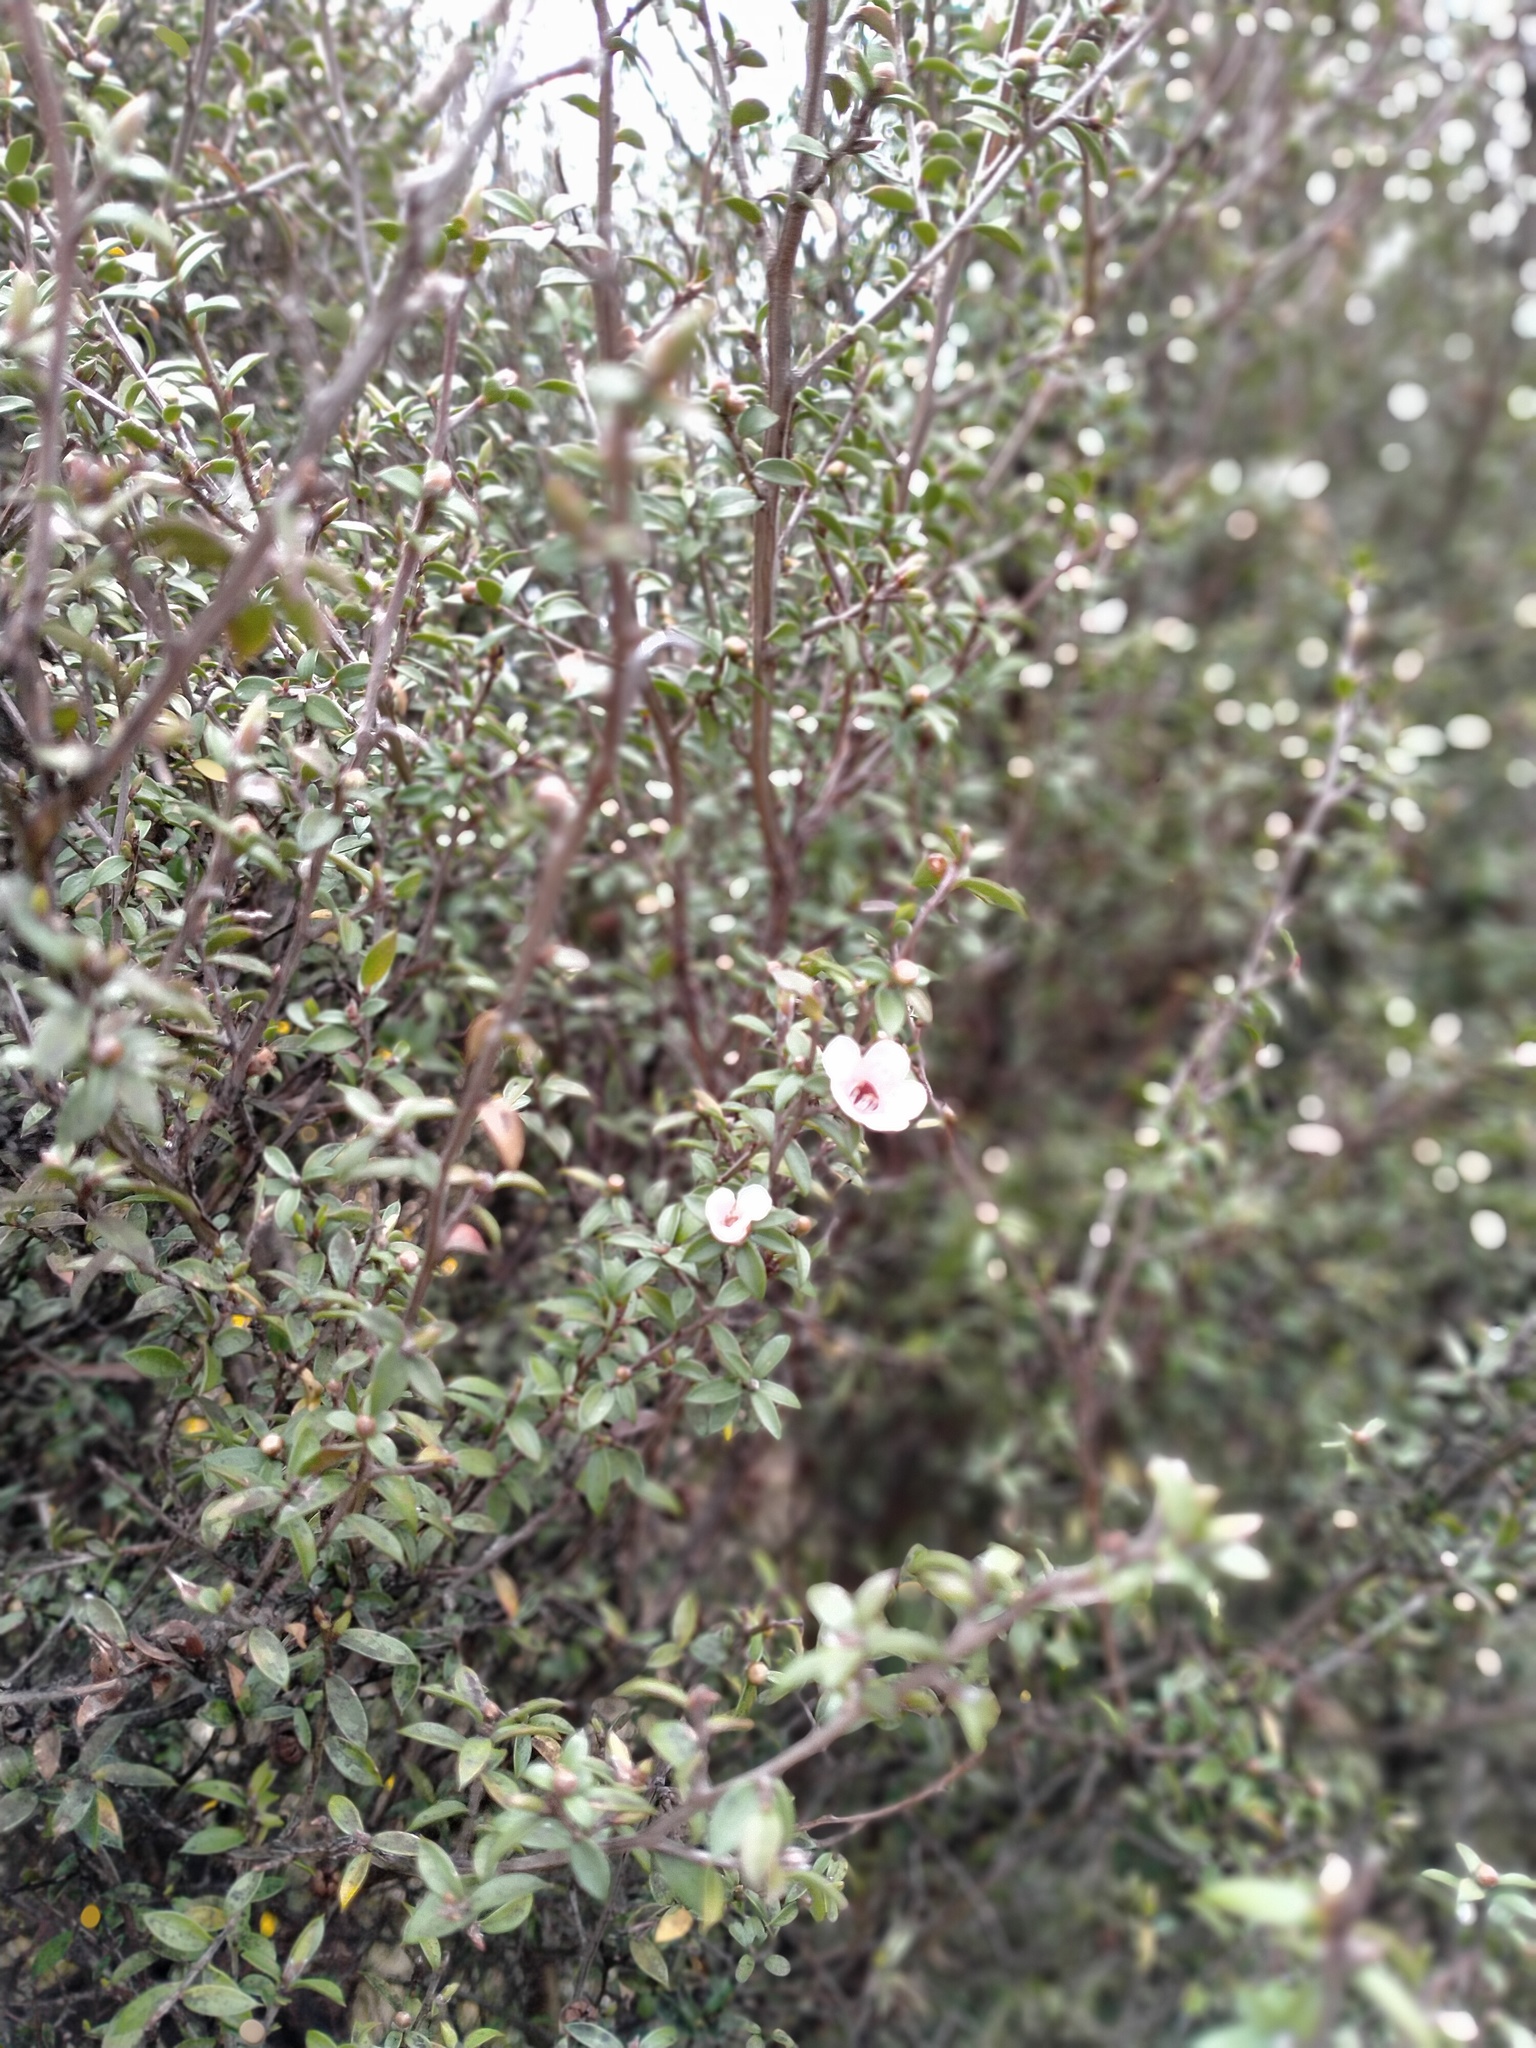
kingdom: Plantae
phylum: Tracheophyta
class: Magnoliopsida
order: Myrtales
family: Myrtaceae
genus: Leptospermum
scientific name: Leptospermum scoparium
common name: Broom tea-tree
